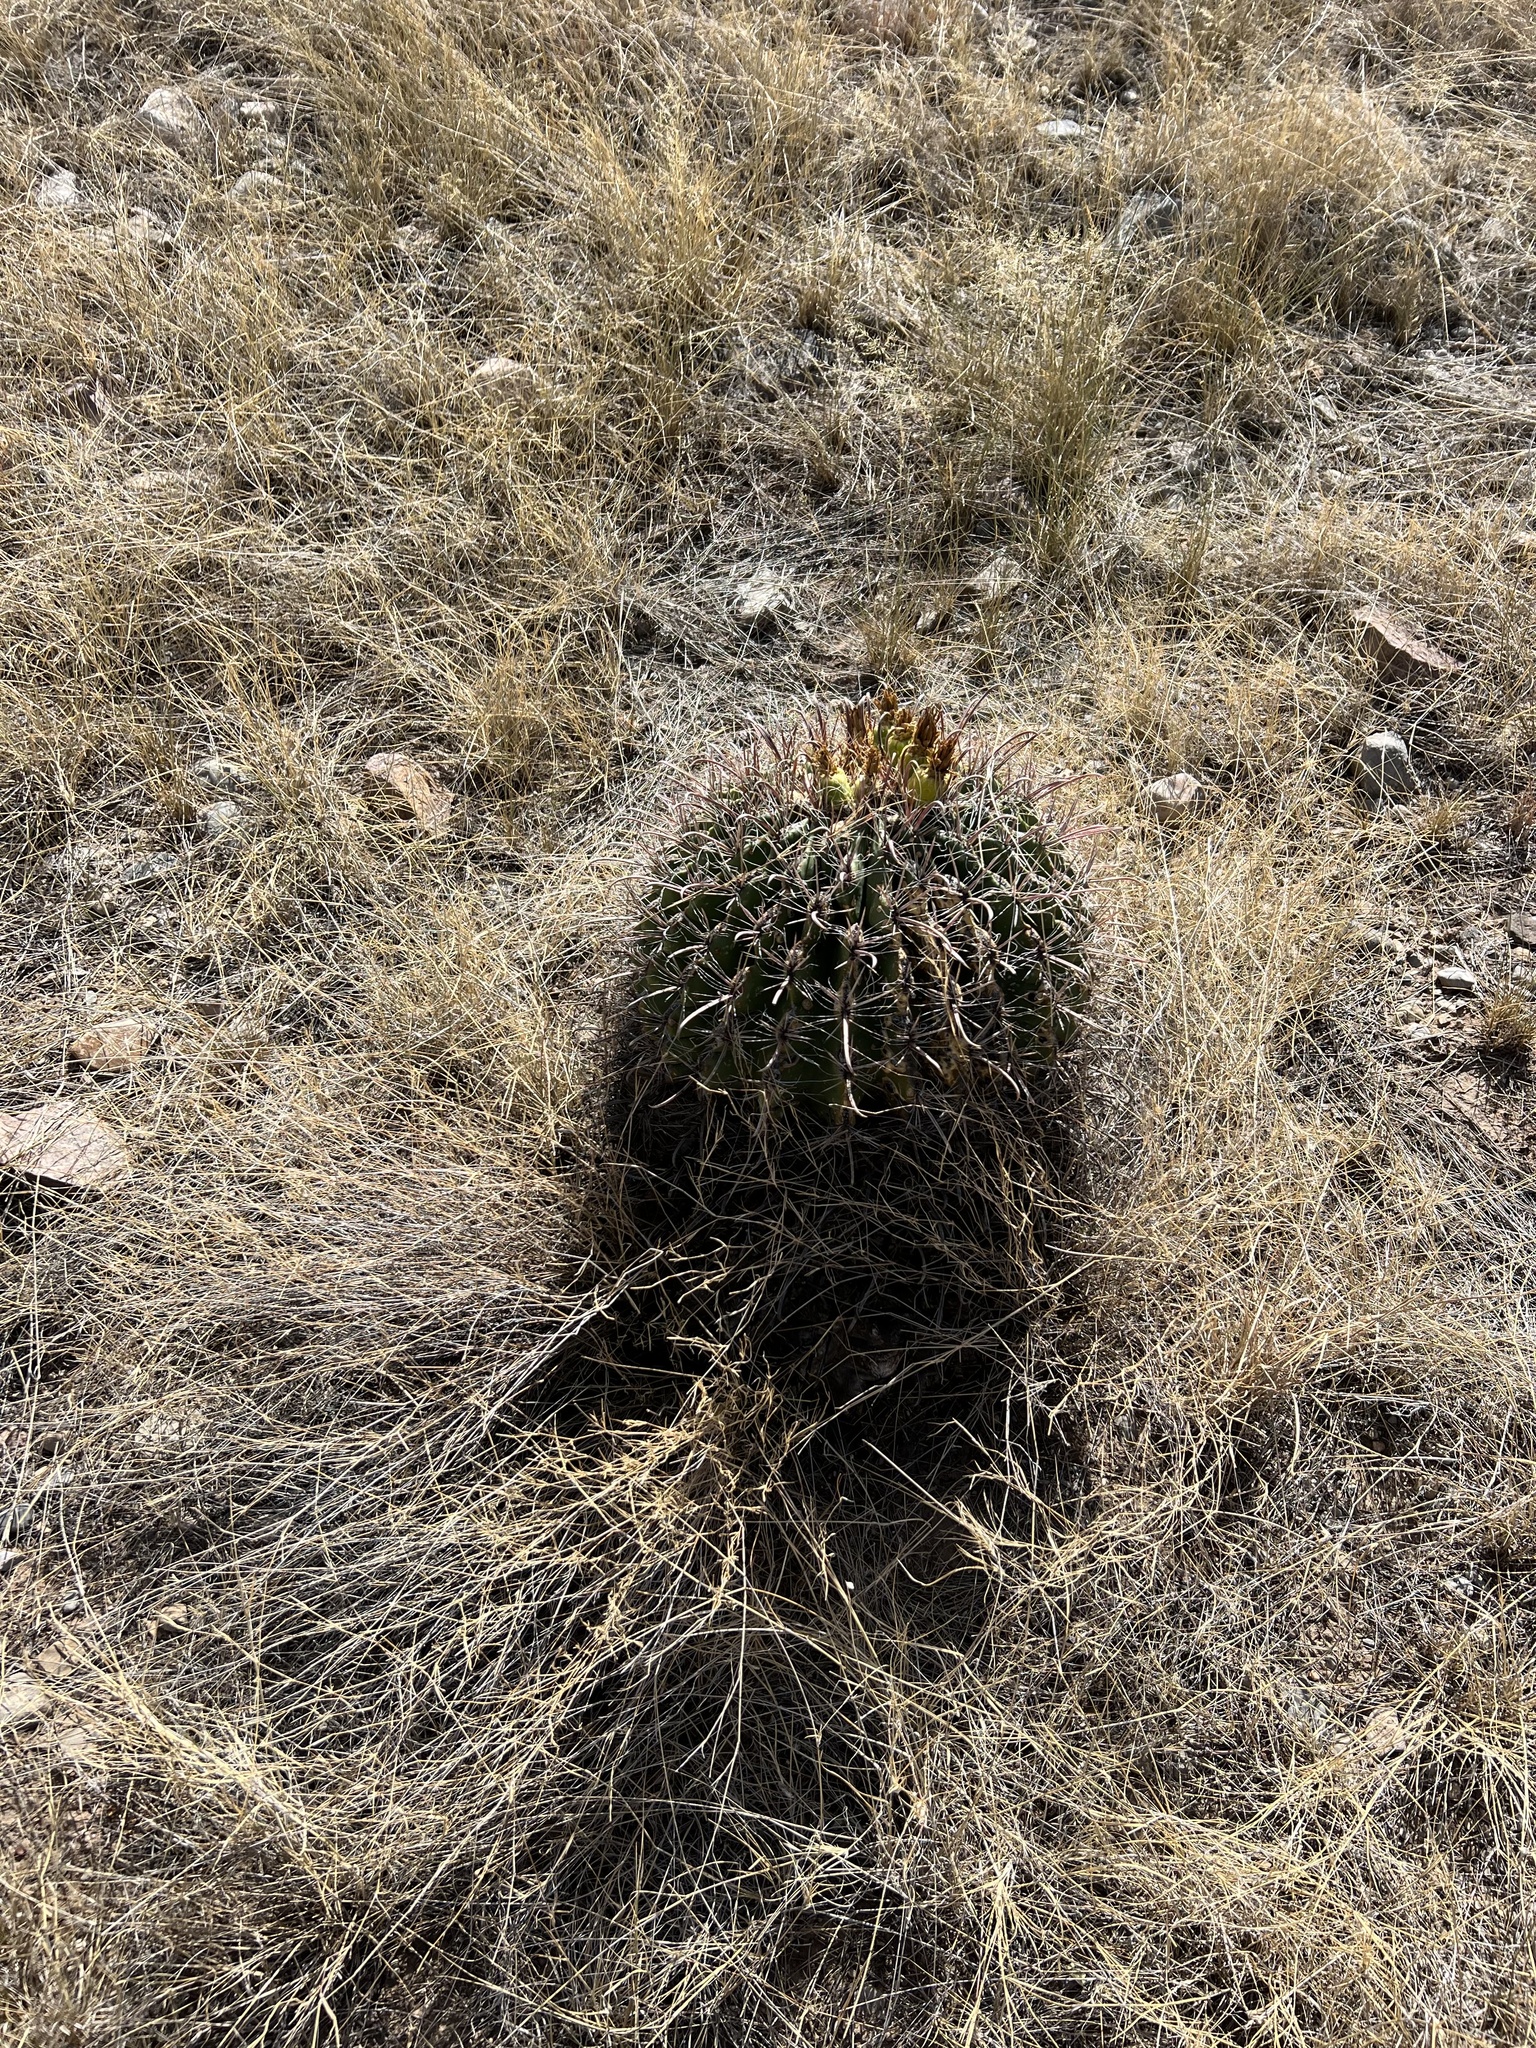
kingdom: Plantae
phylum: Tracheophyta
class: Magnoliopsida
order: Caryophyllales
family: Cactaceae
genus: Ferocactus
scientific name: Ferocactus wislizeni
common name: Candy barrel cactus
